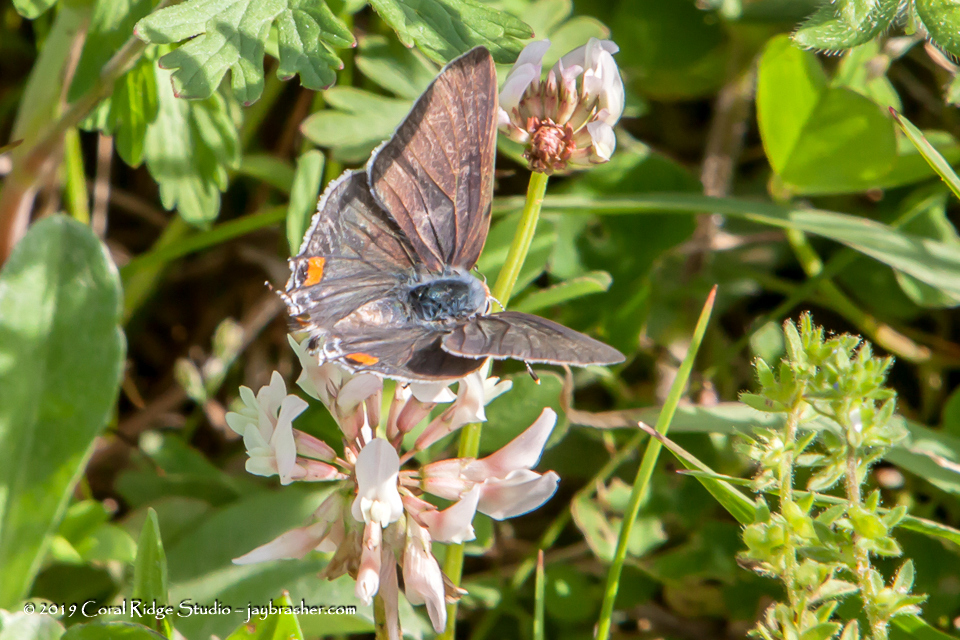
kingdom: Animalia
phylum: Arthropoda
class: Insecta
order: Lepidoptera
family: Lycaenidae
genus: Strymon
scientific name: Strymon melinus
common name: Gray hairstreak
